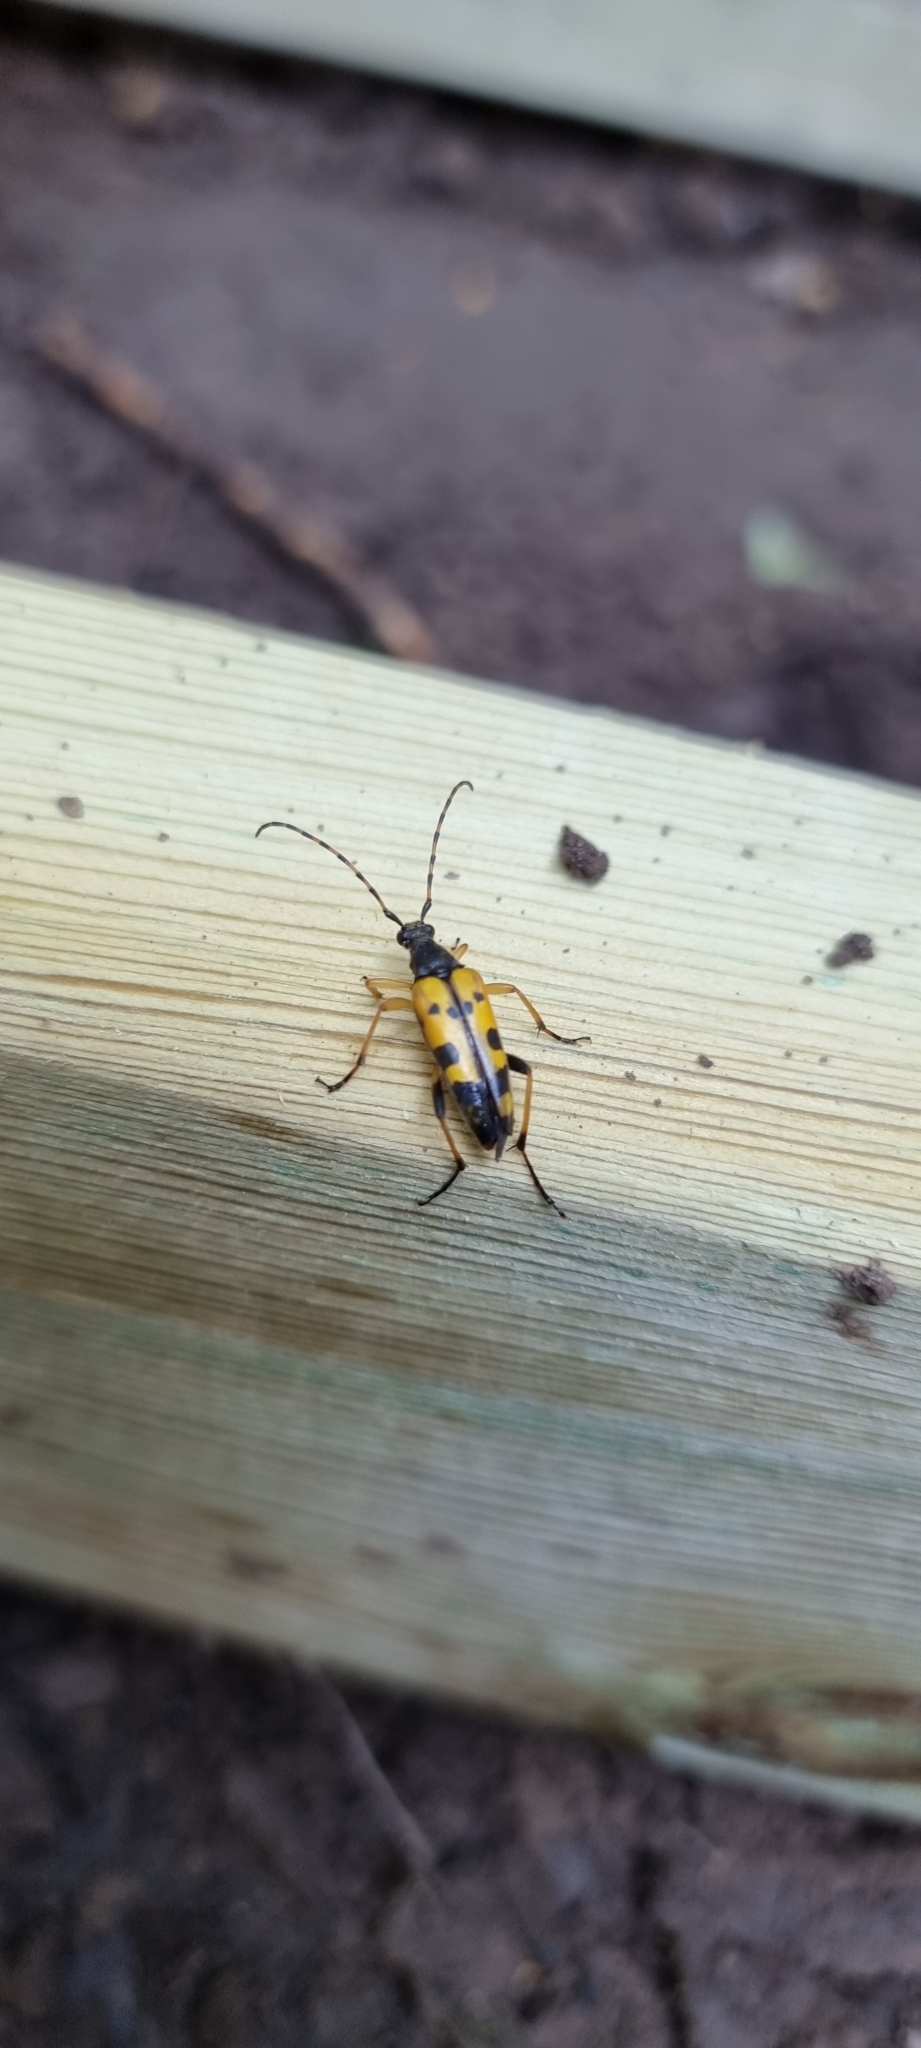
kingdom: Animalia
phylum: Arthropoda
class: Insecta
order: Coleoptera
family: Cerambycidae
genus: Rutpela
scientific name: Rutpela maculata
